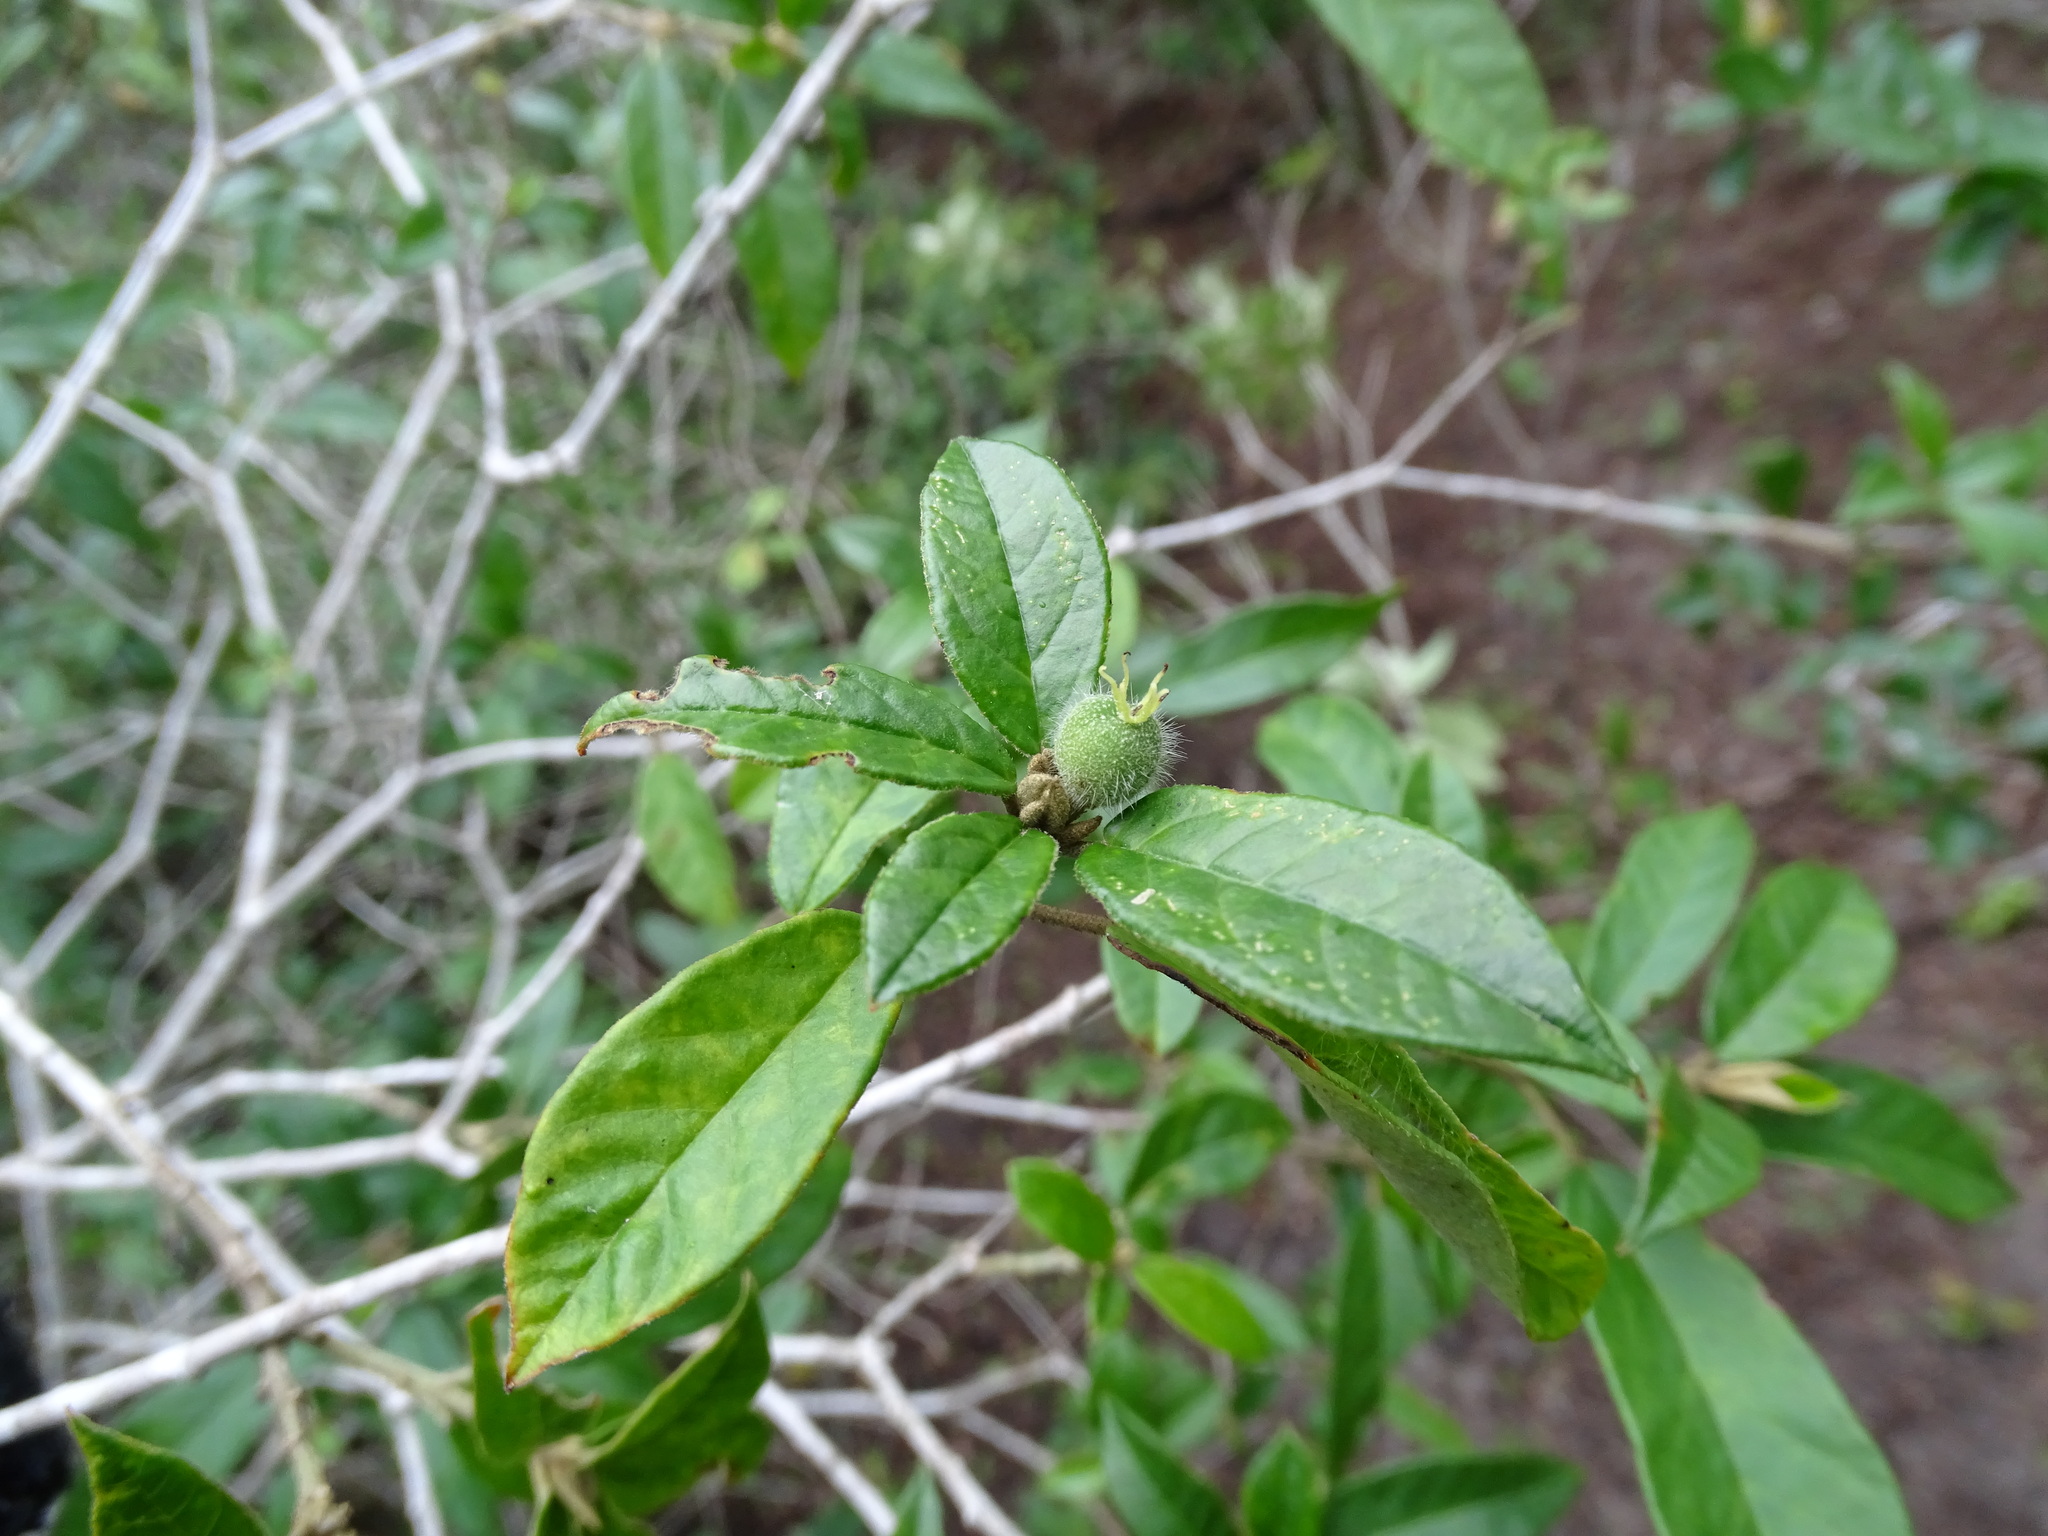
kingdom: Plantae
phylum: Tracheophyta
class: Magnoliopsida
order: Malpighiales
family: Euphorbiaceae
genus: Croton
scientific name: Croton cortesianus
